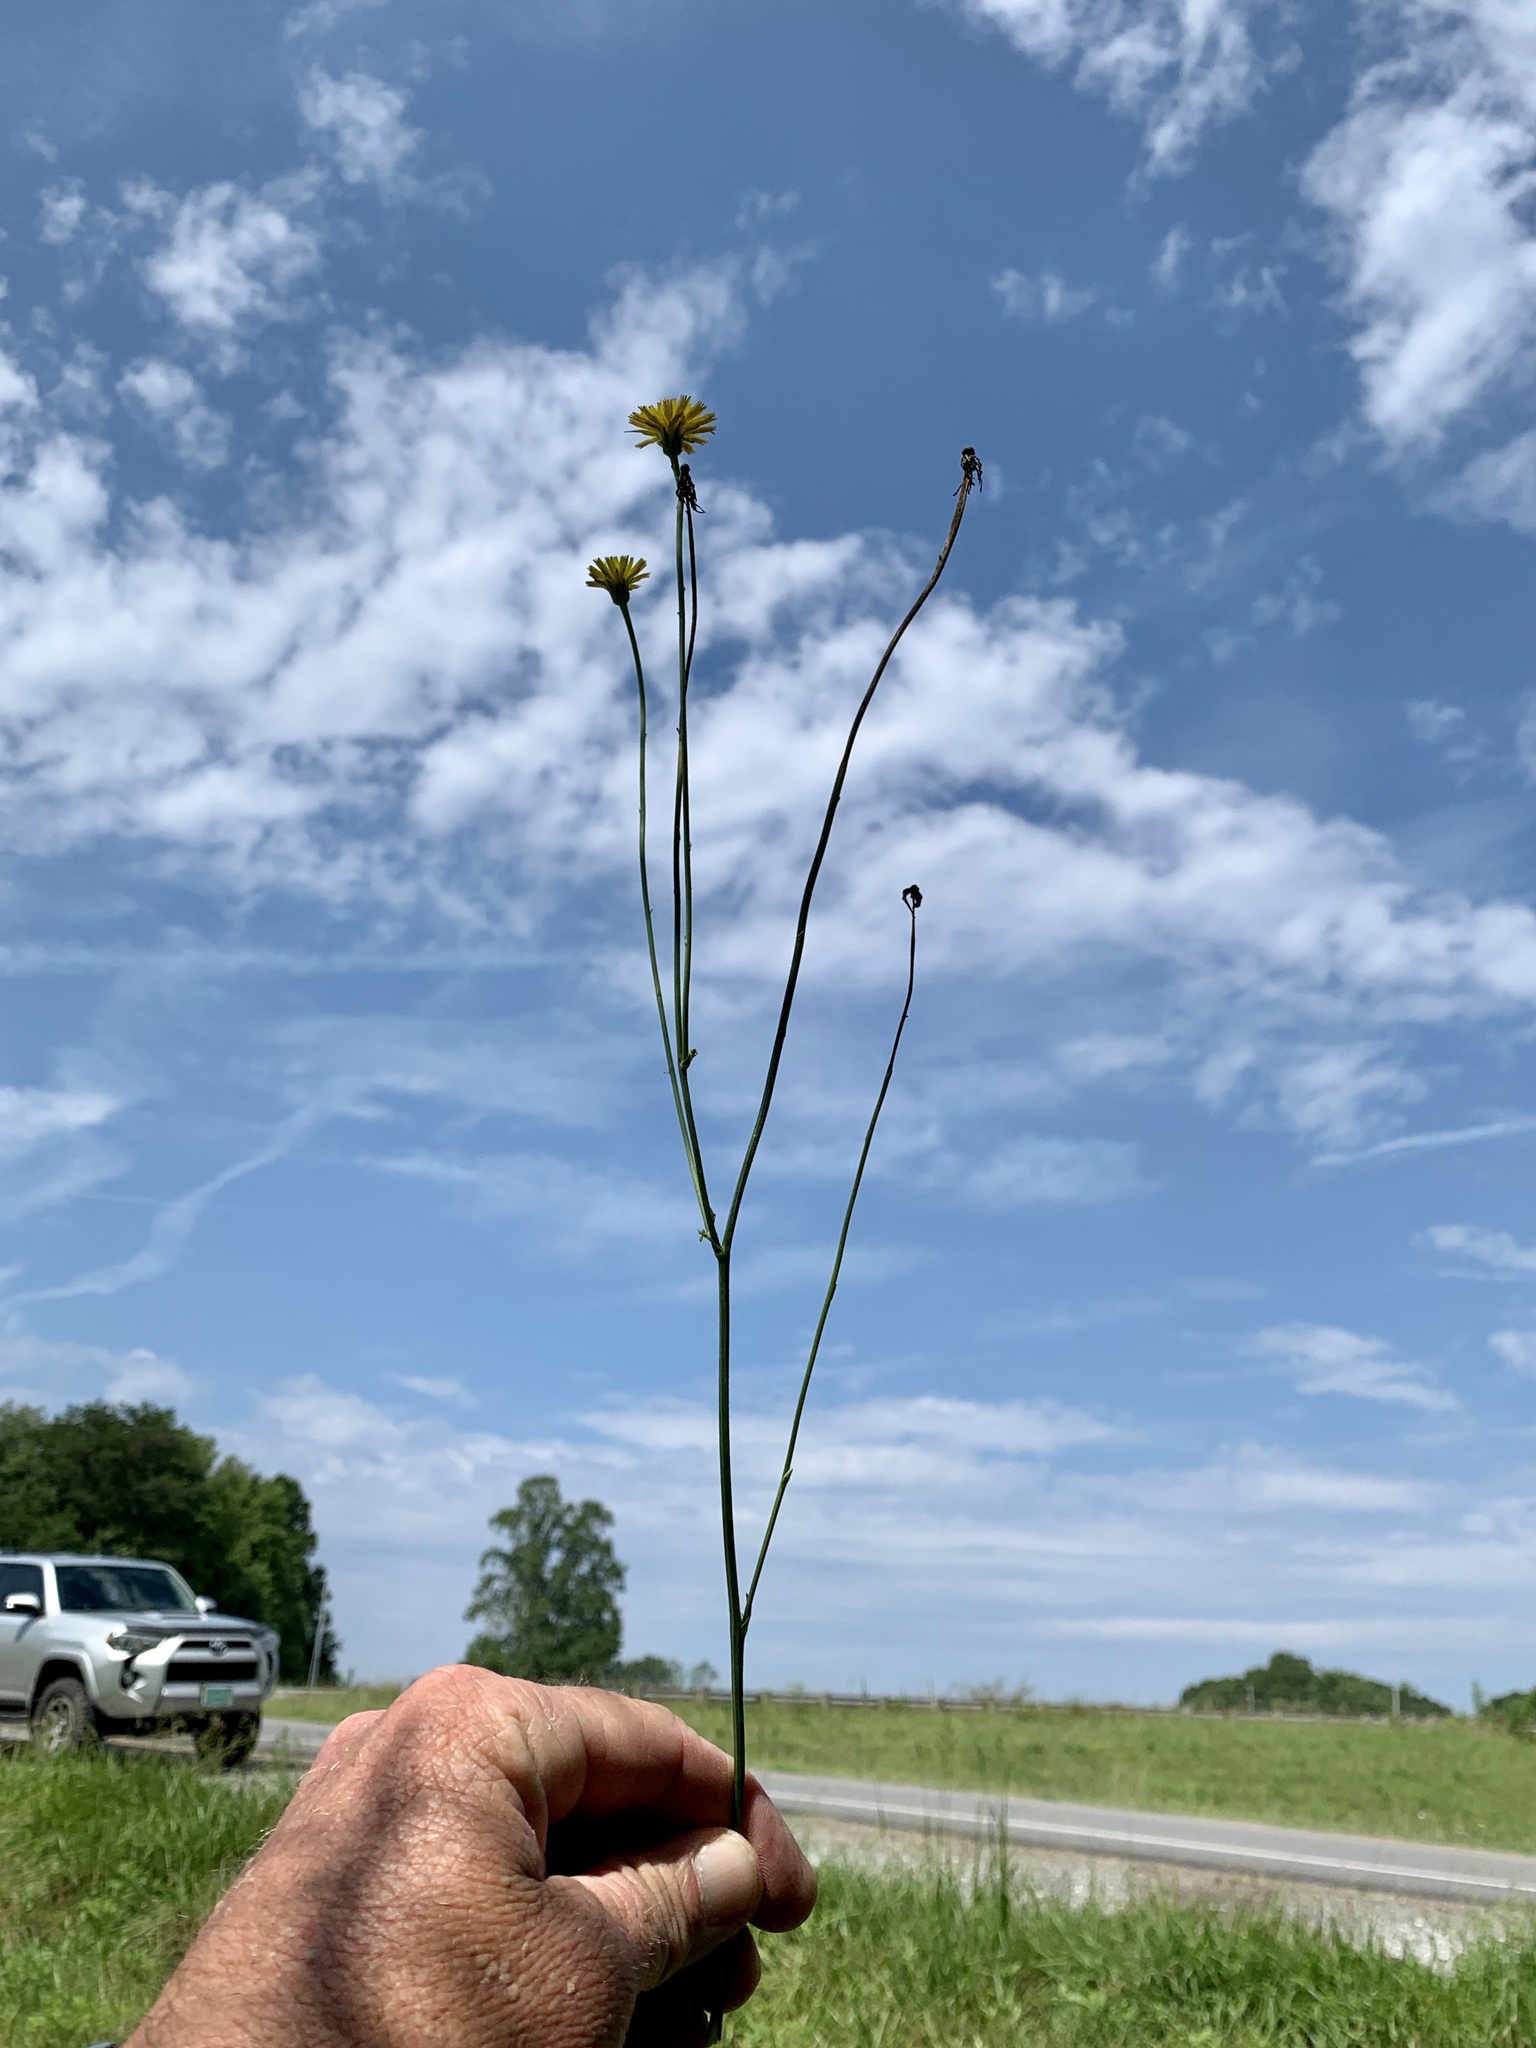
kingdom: Plantae
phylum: Tracheophyta
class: Magnoliopsida
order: Asterales
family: Asteraceae
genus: Hypochaeris
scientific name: Hypochaeris radicata
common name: Flatweed
